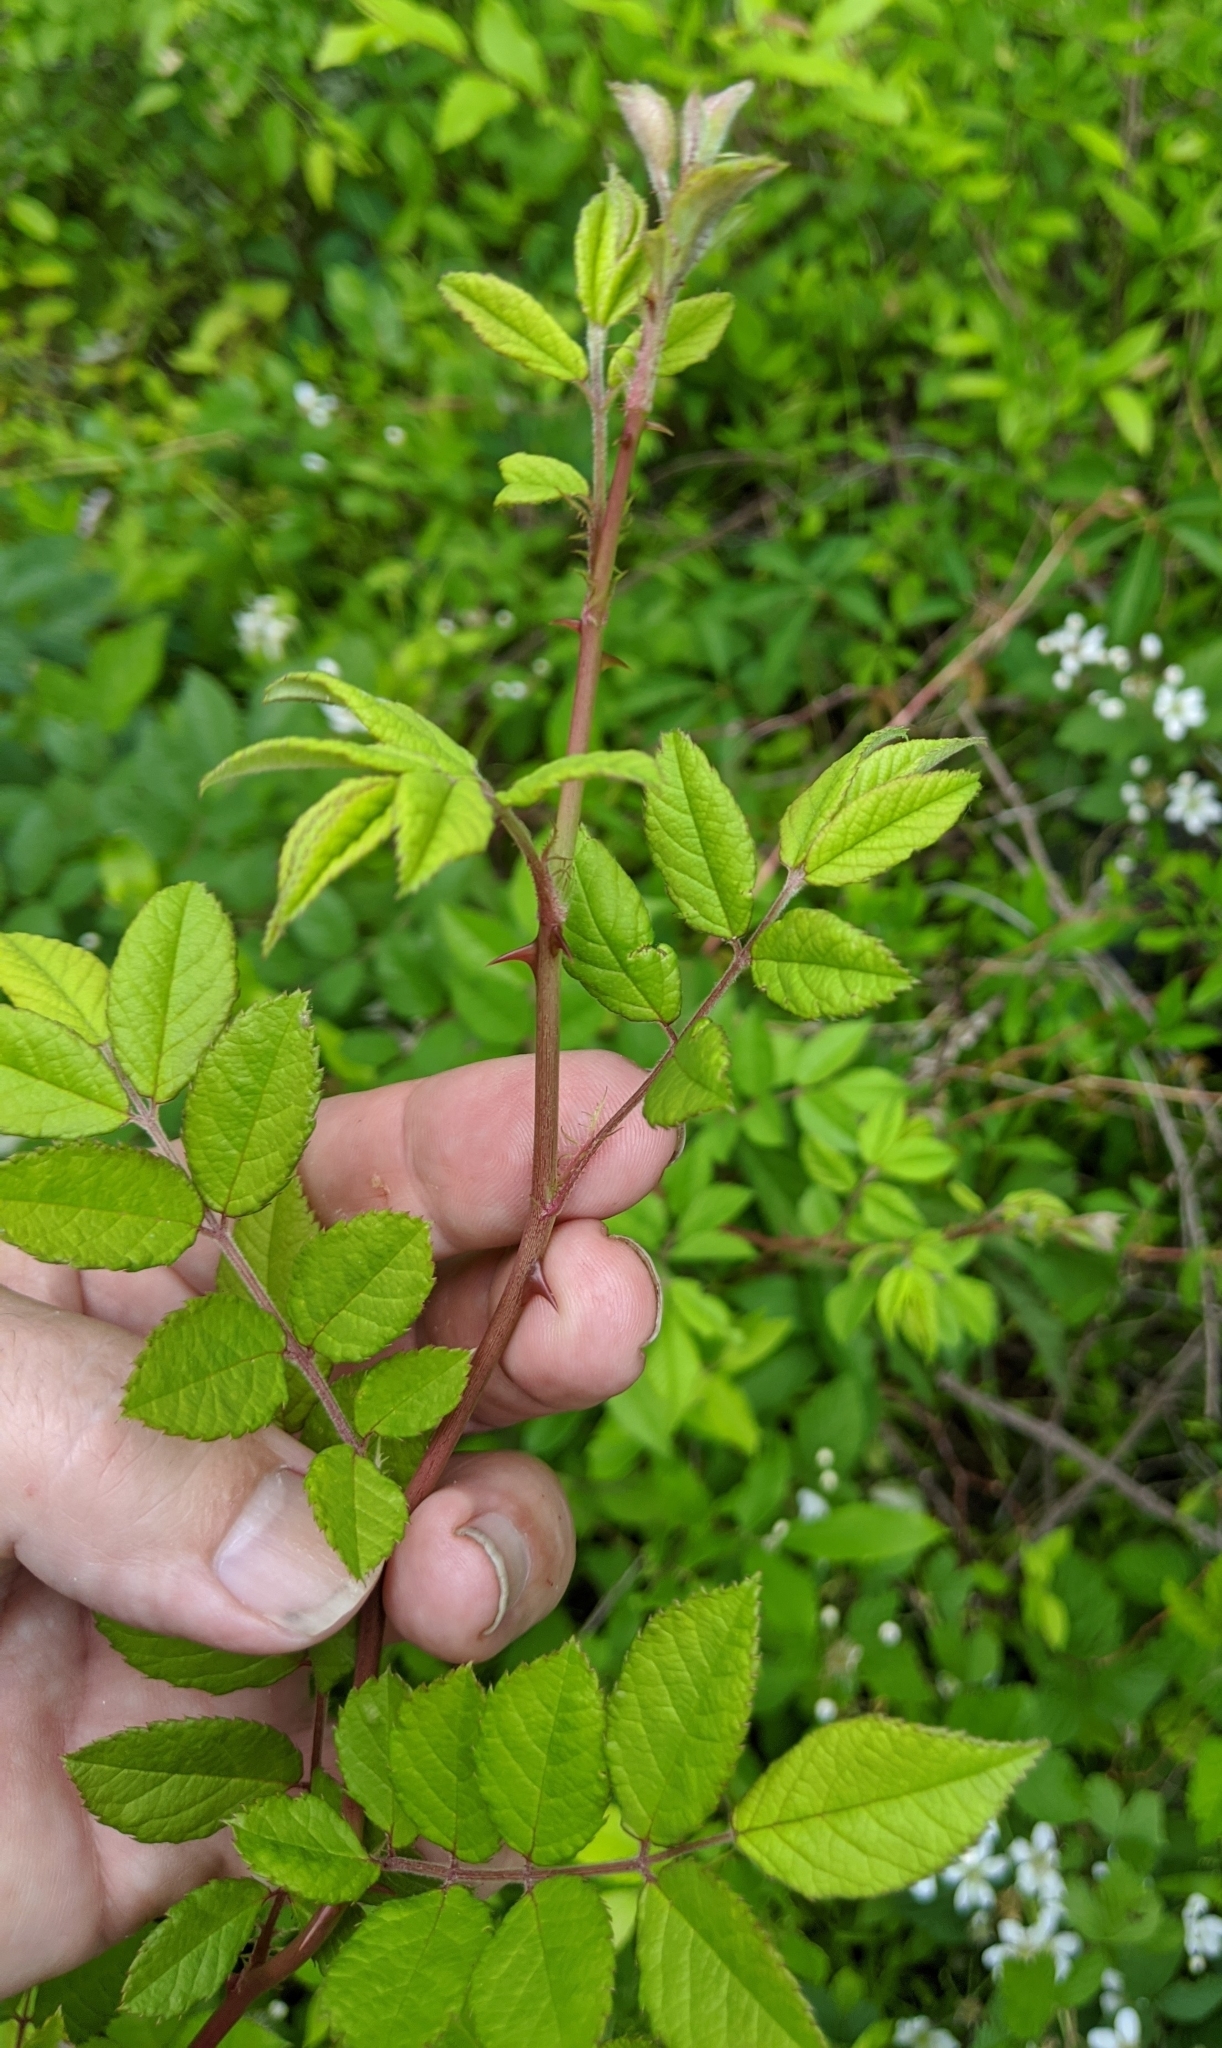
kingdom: Plantae
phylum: Tracheophyta
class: Magnoliopsida
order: Rosales
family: Rosaceae
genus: Rosa
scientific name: Rosa multiflora
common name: Multiflora rose
